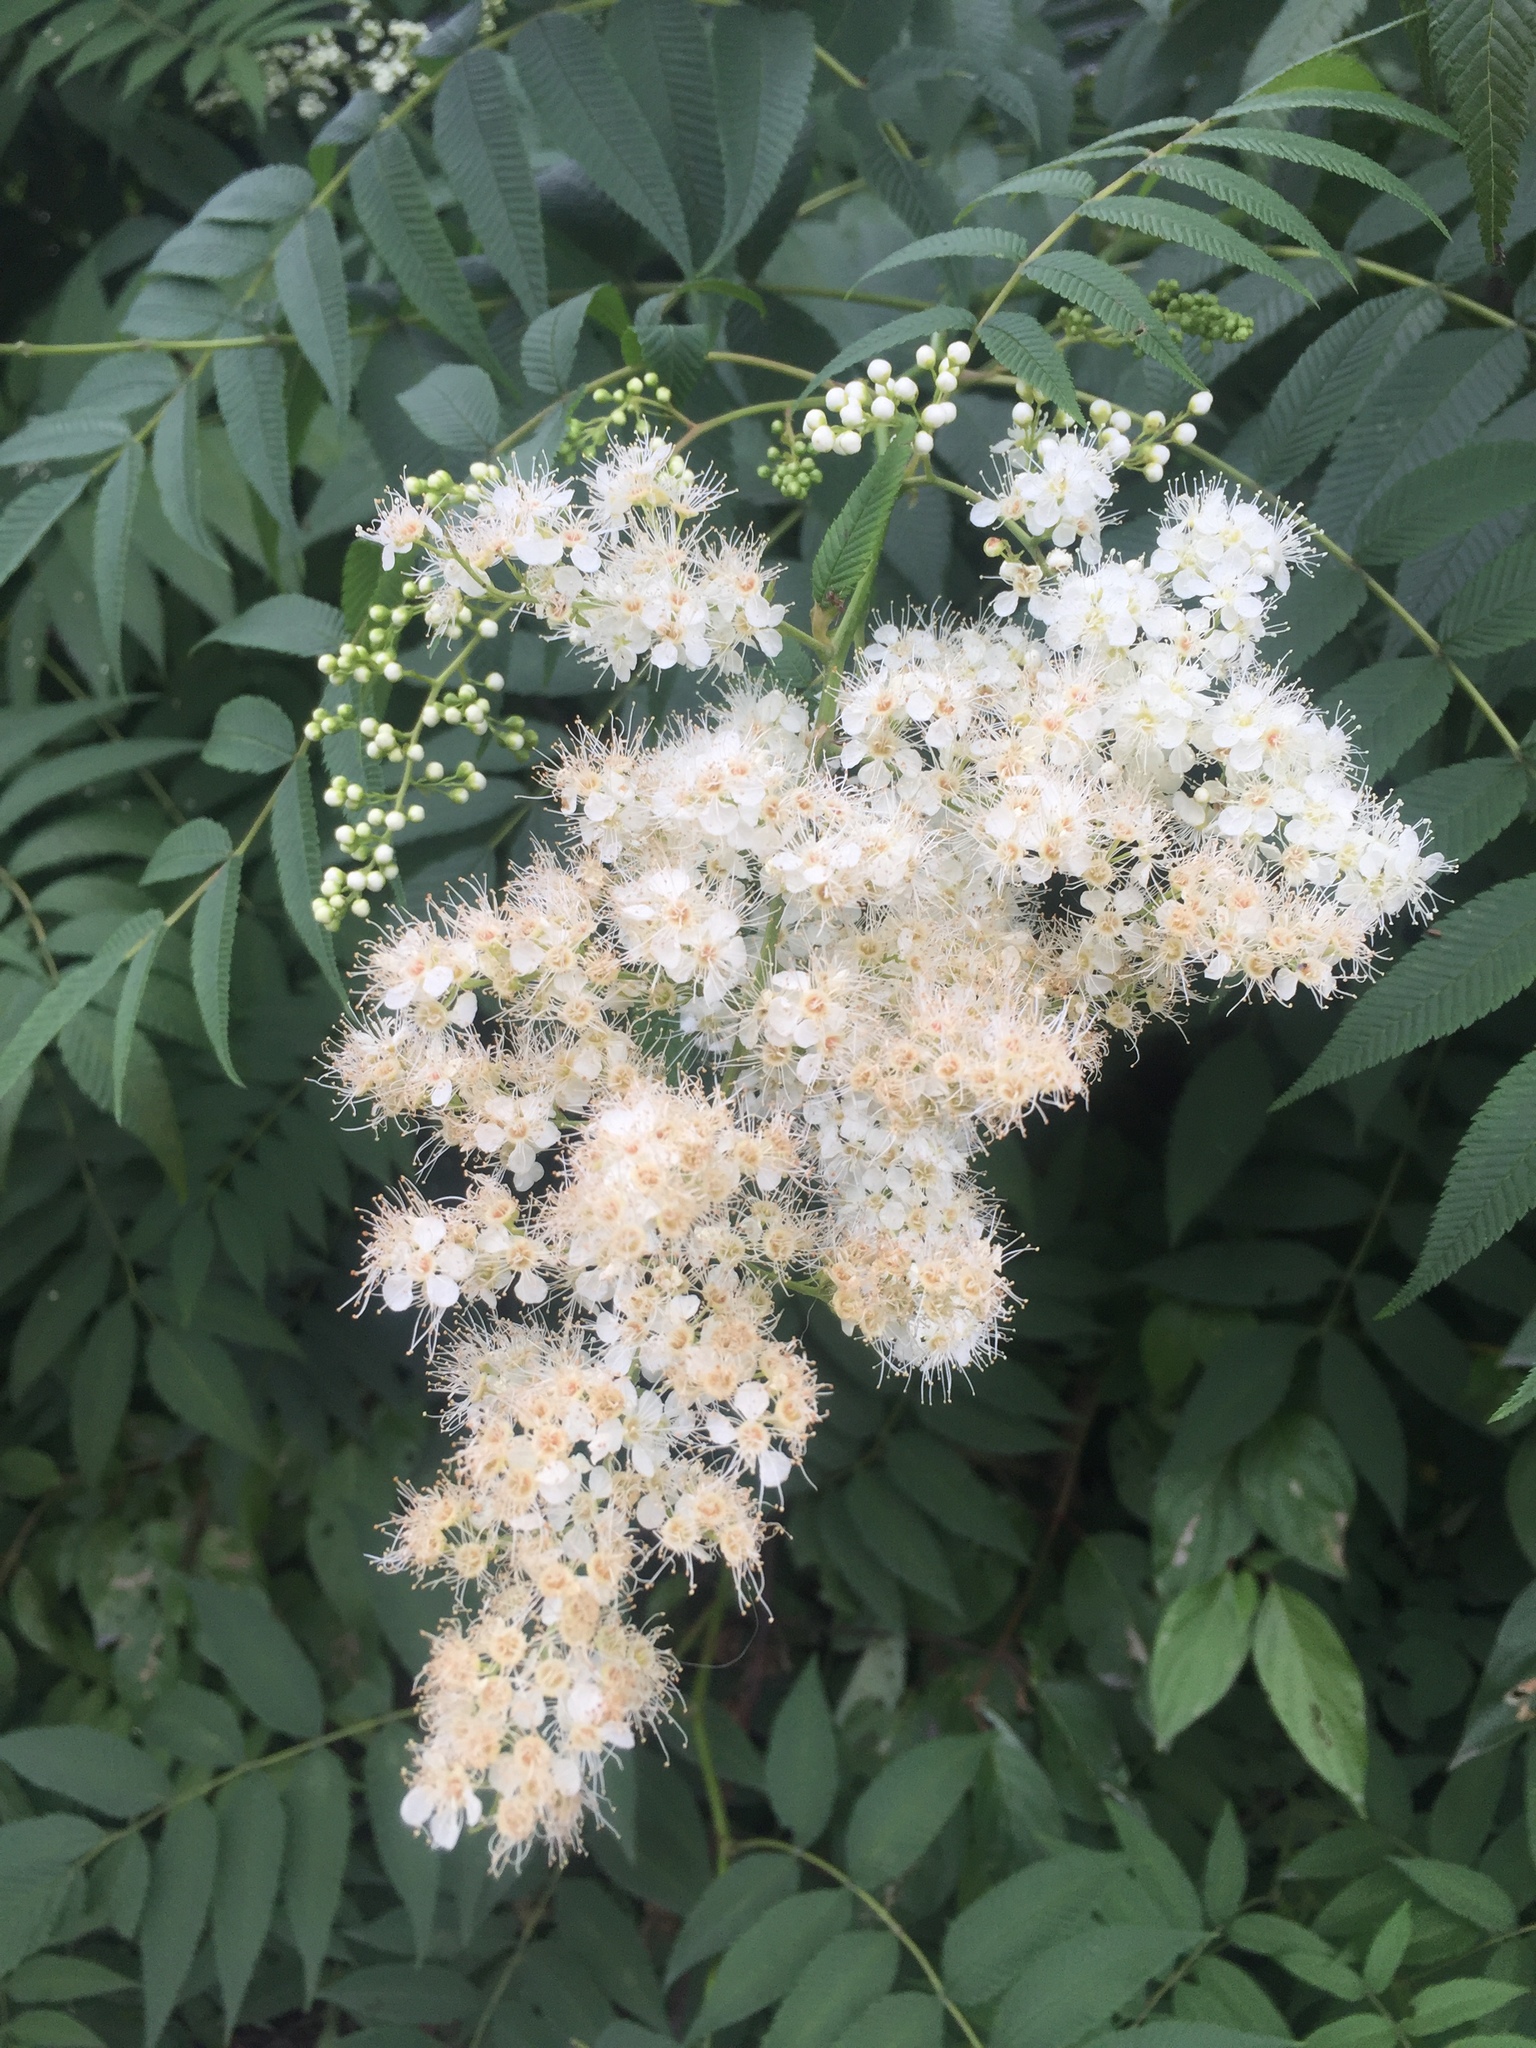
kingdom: Plantae
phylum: Tracheophyta
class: Magnoliopsida
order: Rosales
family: Rosaceae
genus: Sorbaria
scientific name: Sorbaria sorbifolia
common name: False spiraea
